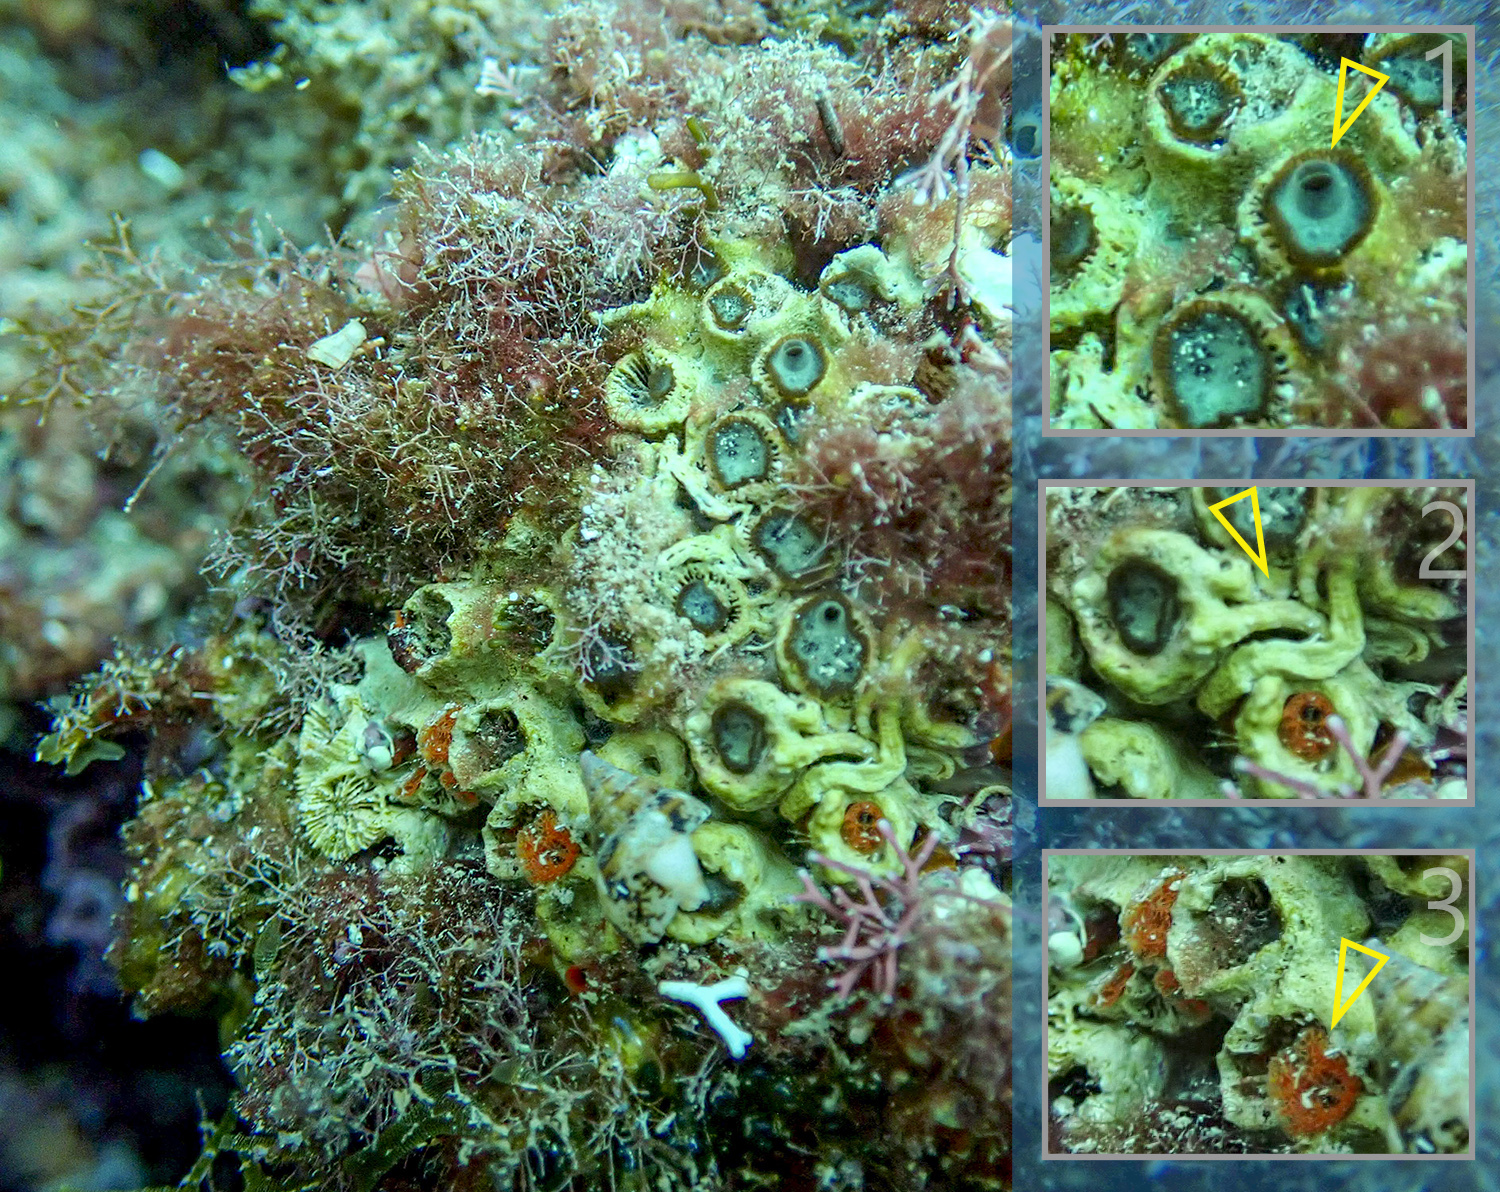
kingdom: Animalia
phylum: Cnidaria
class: Anthozoa
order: Scleractinia
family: Cladocoridae
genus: Cladocora
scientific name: Cladocora caespitosa
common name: Cladocora
